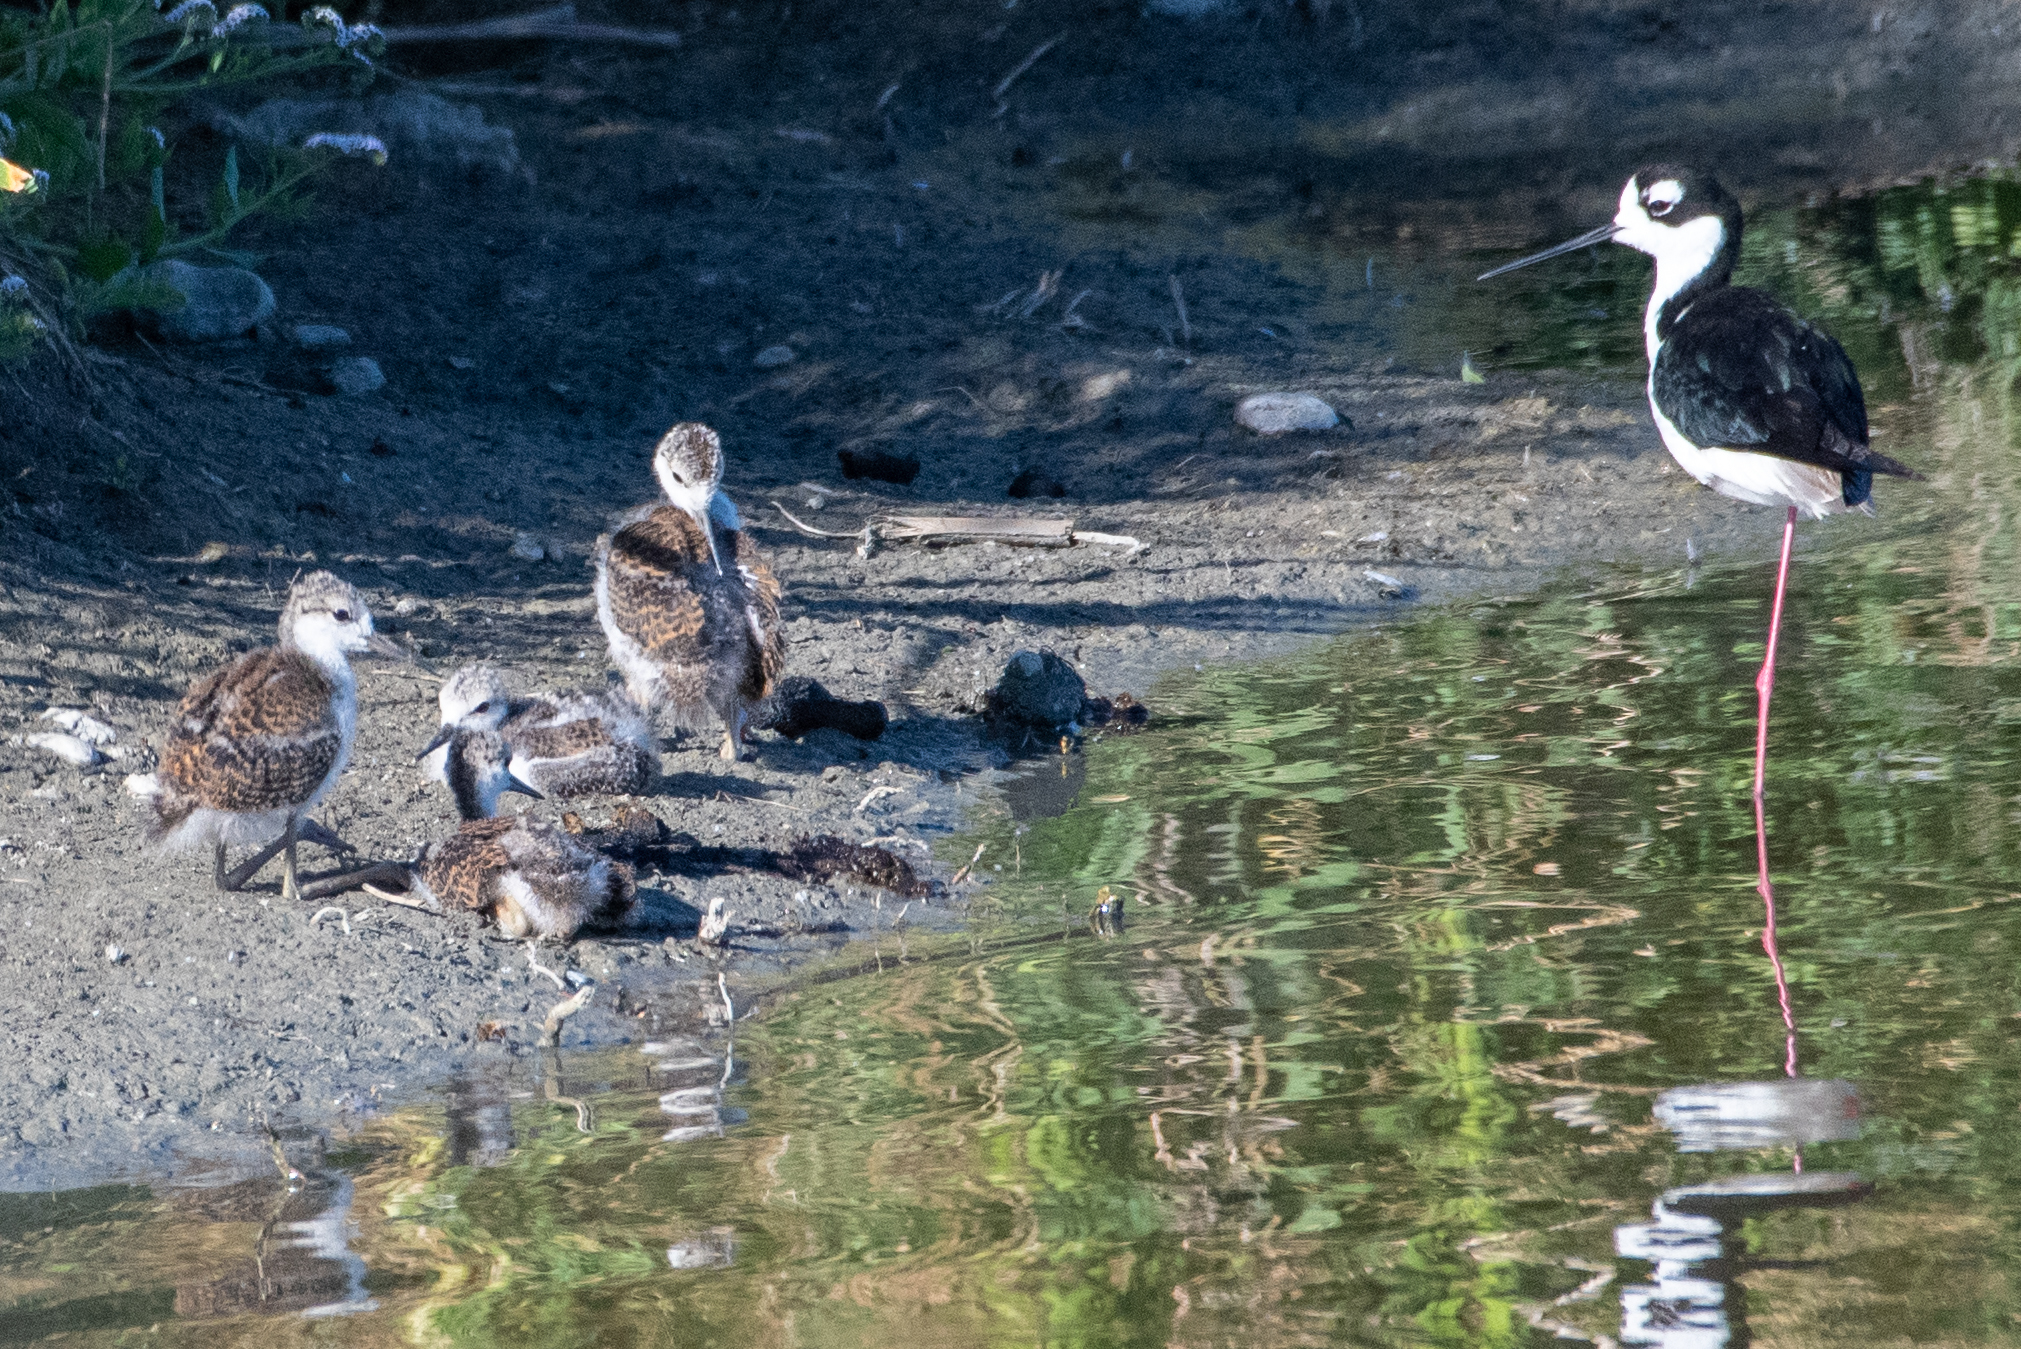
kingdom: Animalia
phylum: Chordata
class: Aves
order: Charadriiformes
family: Recurvirostridae
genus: Himantopus
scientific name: Himantopus mexicanus
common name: Black-necked stilt
